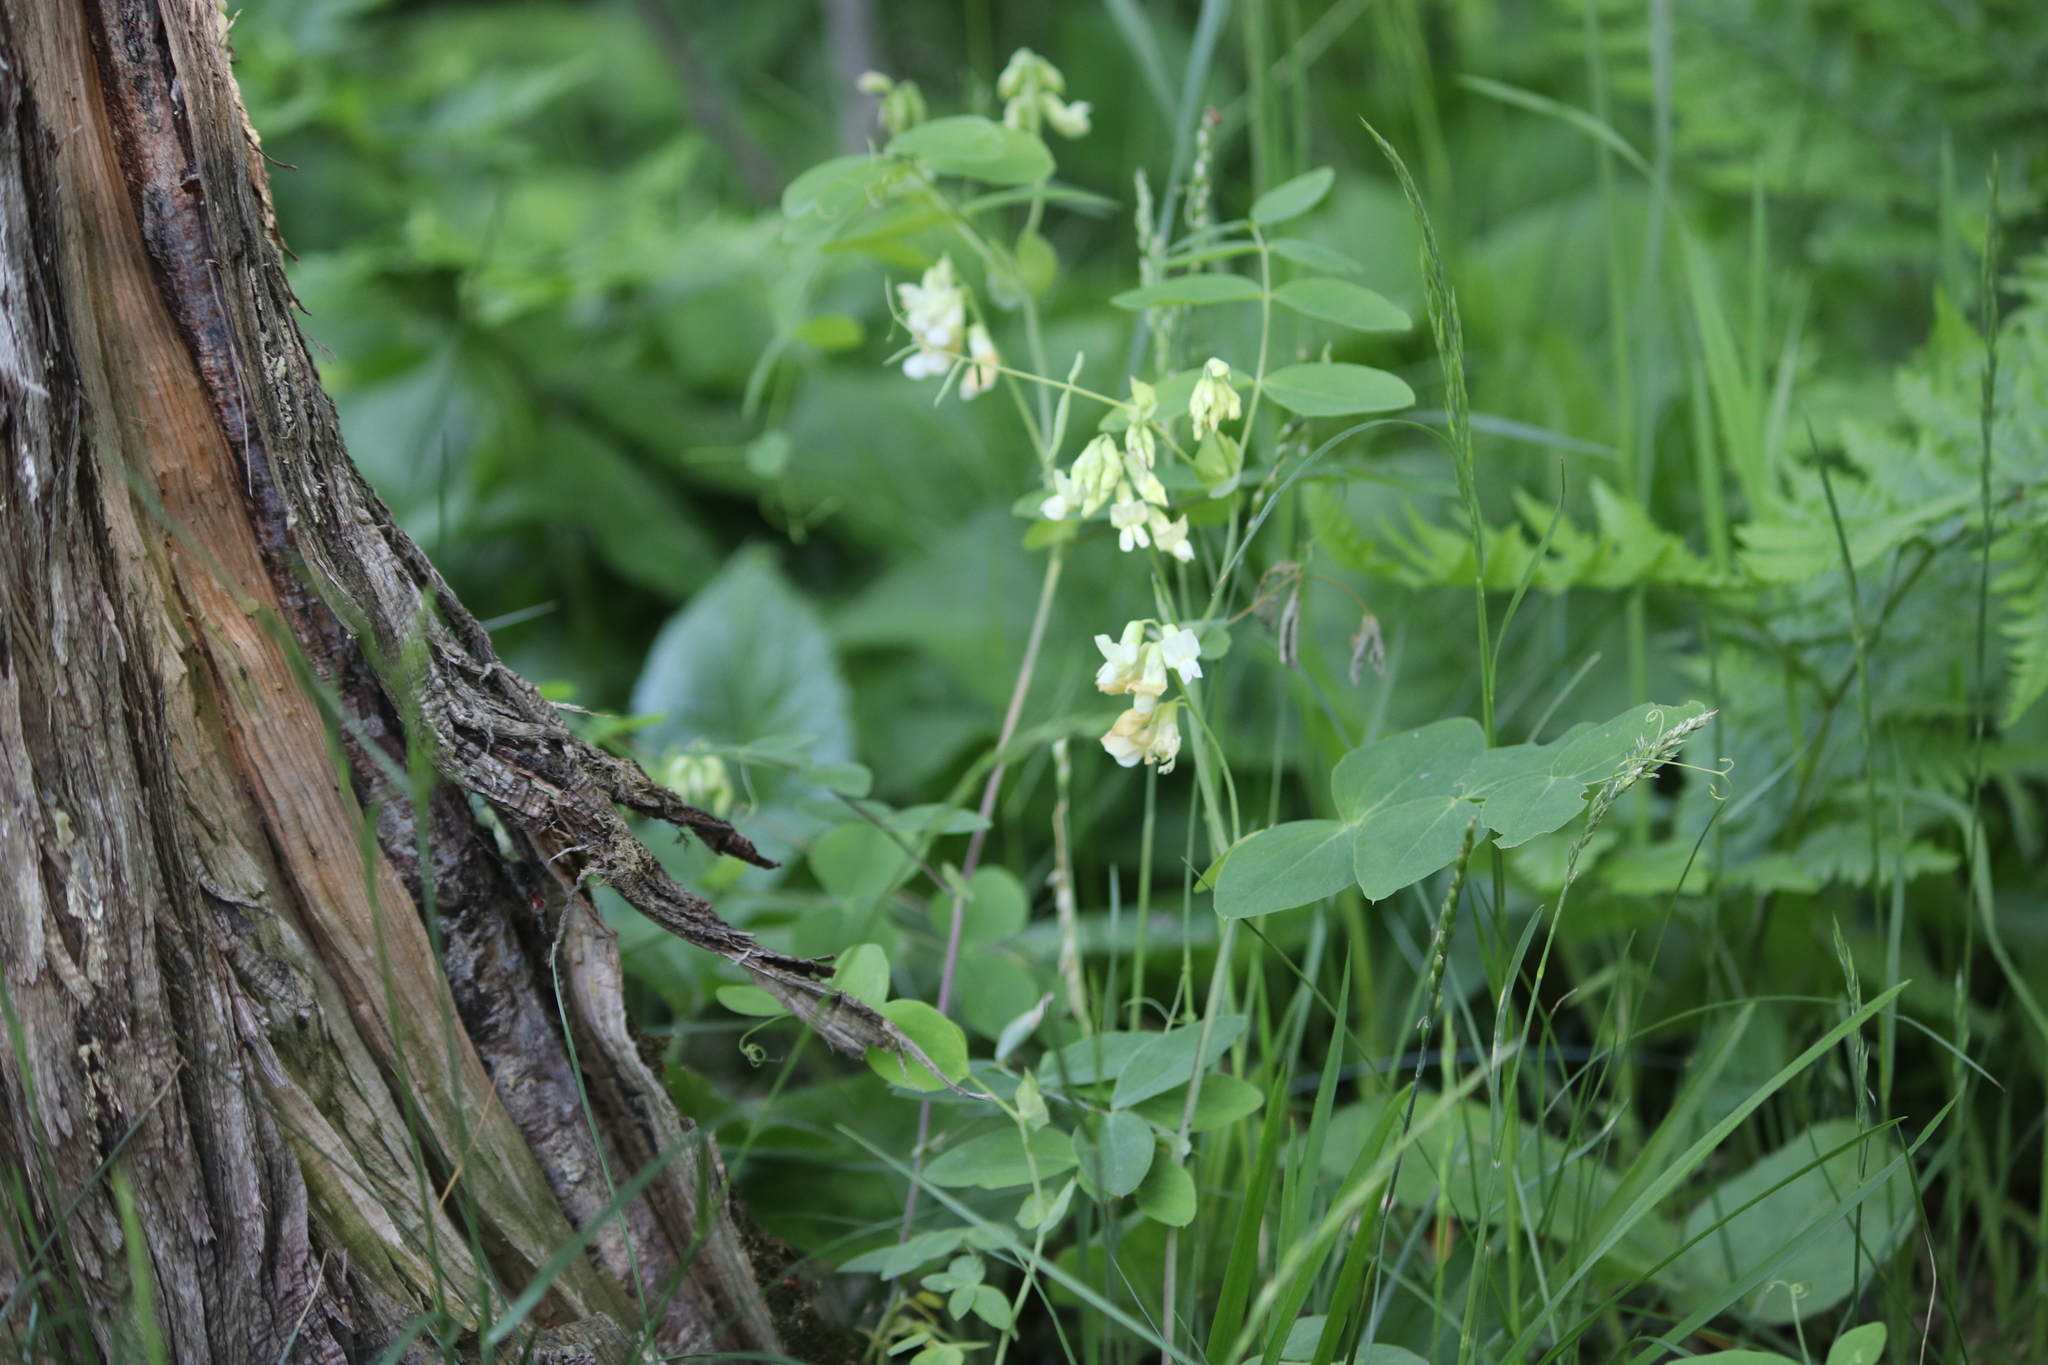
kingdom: Plantae
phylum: Tracheophyta
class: Magnoliopsida
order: Fabales
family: Fabaceae
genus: Lathyrus
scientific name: Lathyrus ochroleucus
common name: Pale vetchling
